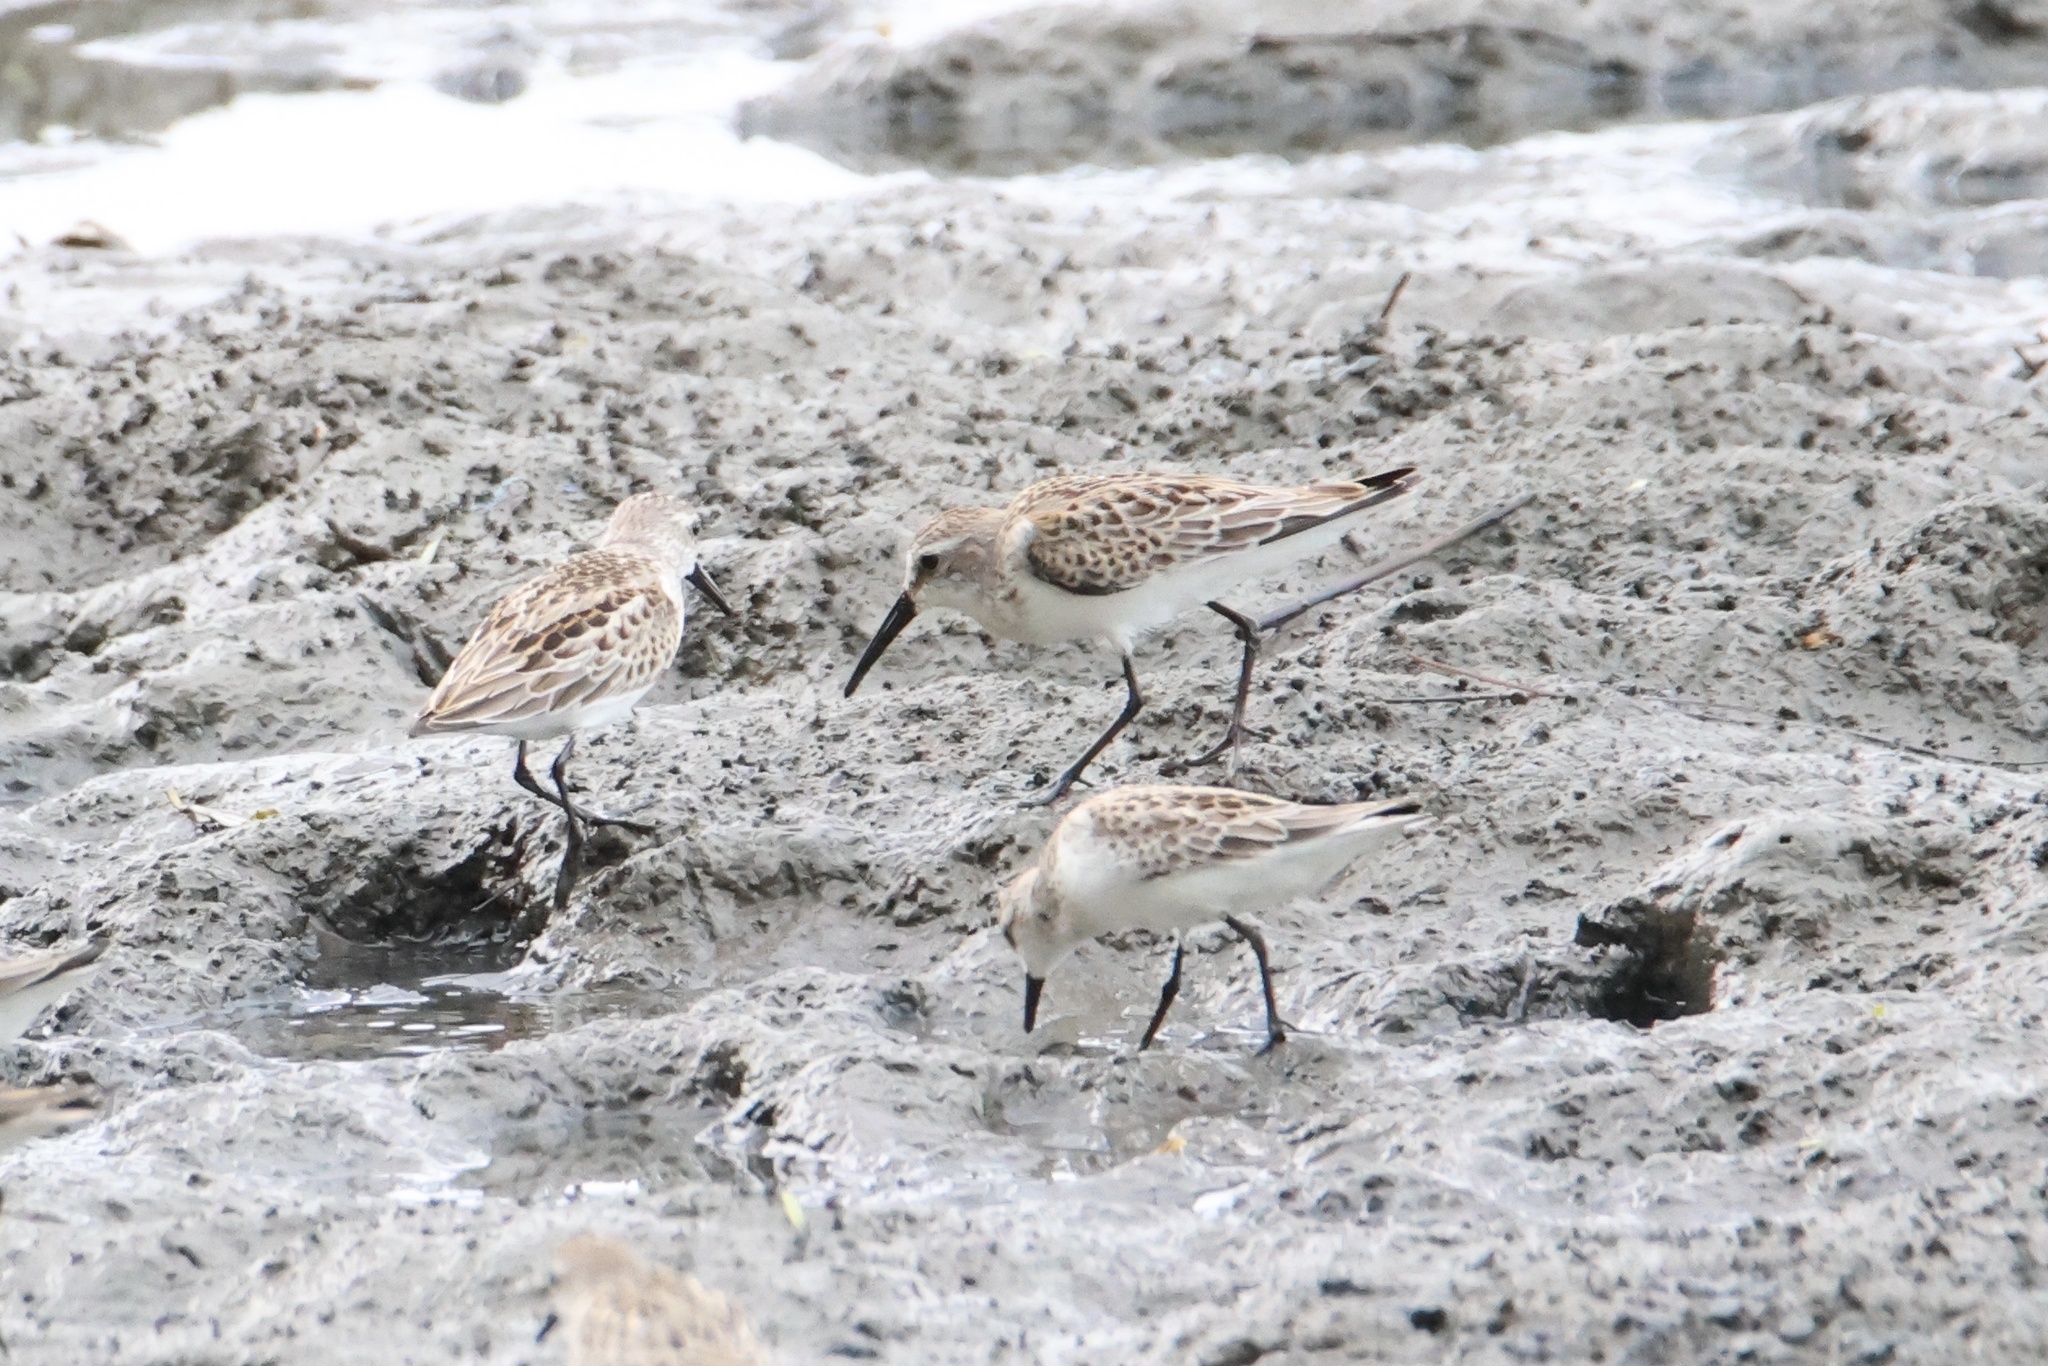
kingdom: Animalia
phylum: Chordata
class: Aves
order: Charadriiformes
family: Scolopacidae
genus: Calidris
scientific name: Calidris mauri
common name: Western sandpiper
